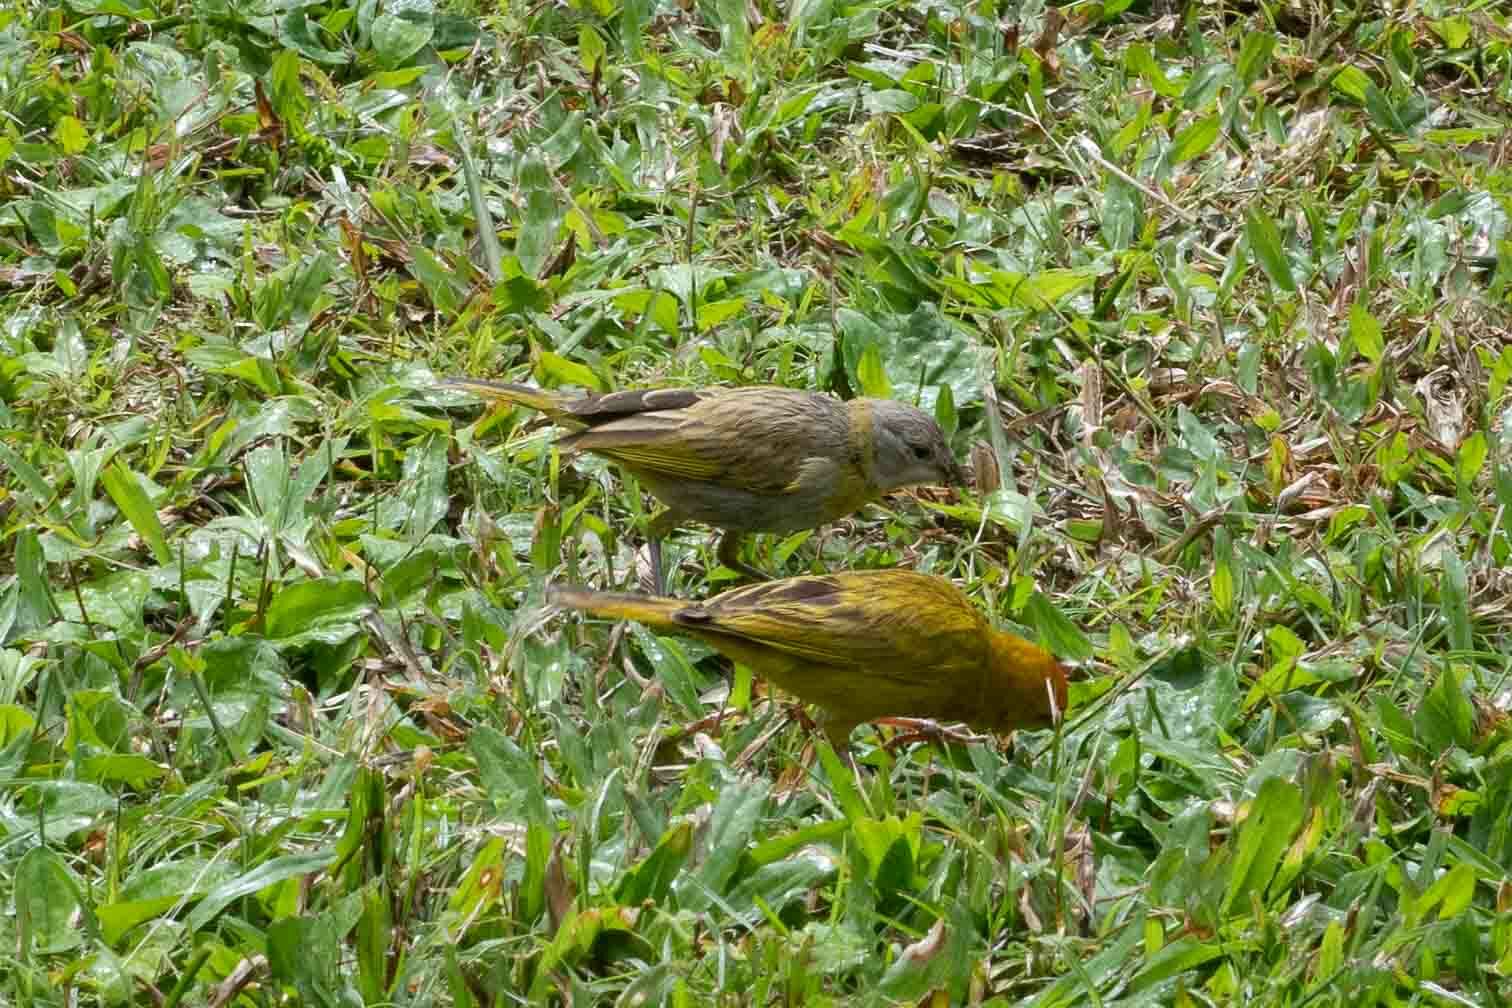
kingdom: Animalia
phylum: Chordata
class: Aves
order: Passeriformes
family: Thraupidae
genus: Sicalis
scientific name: Sicalis flaveola
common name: Saffron finch
